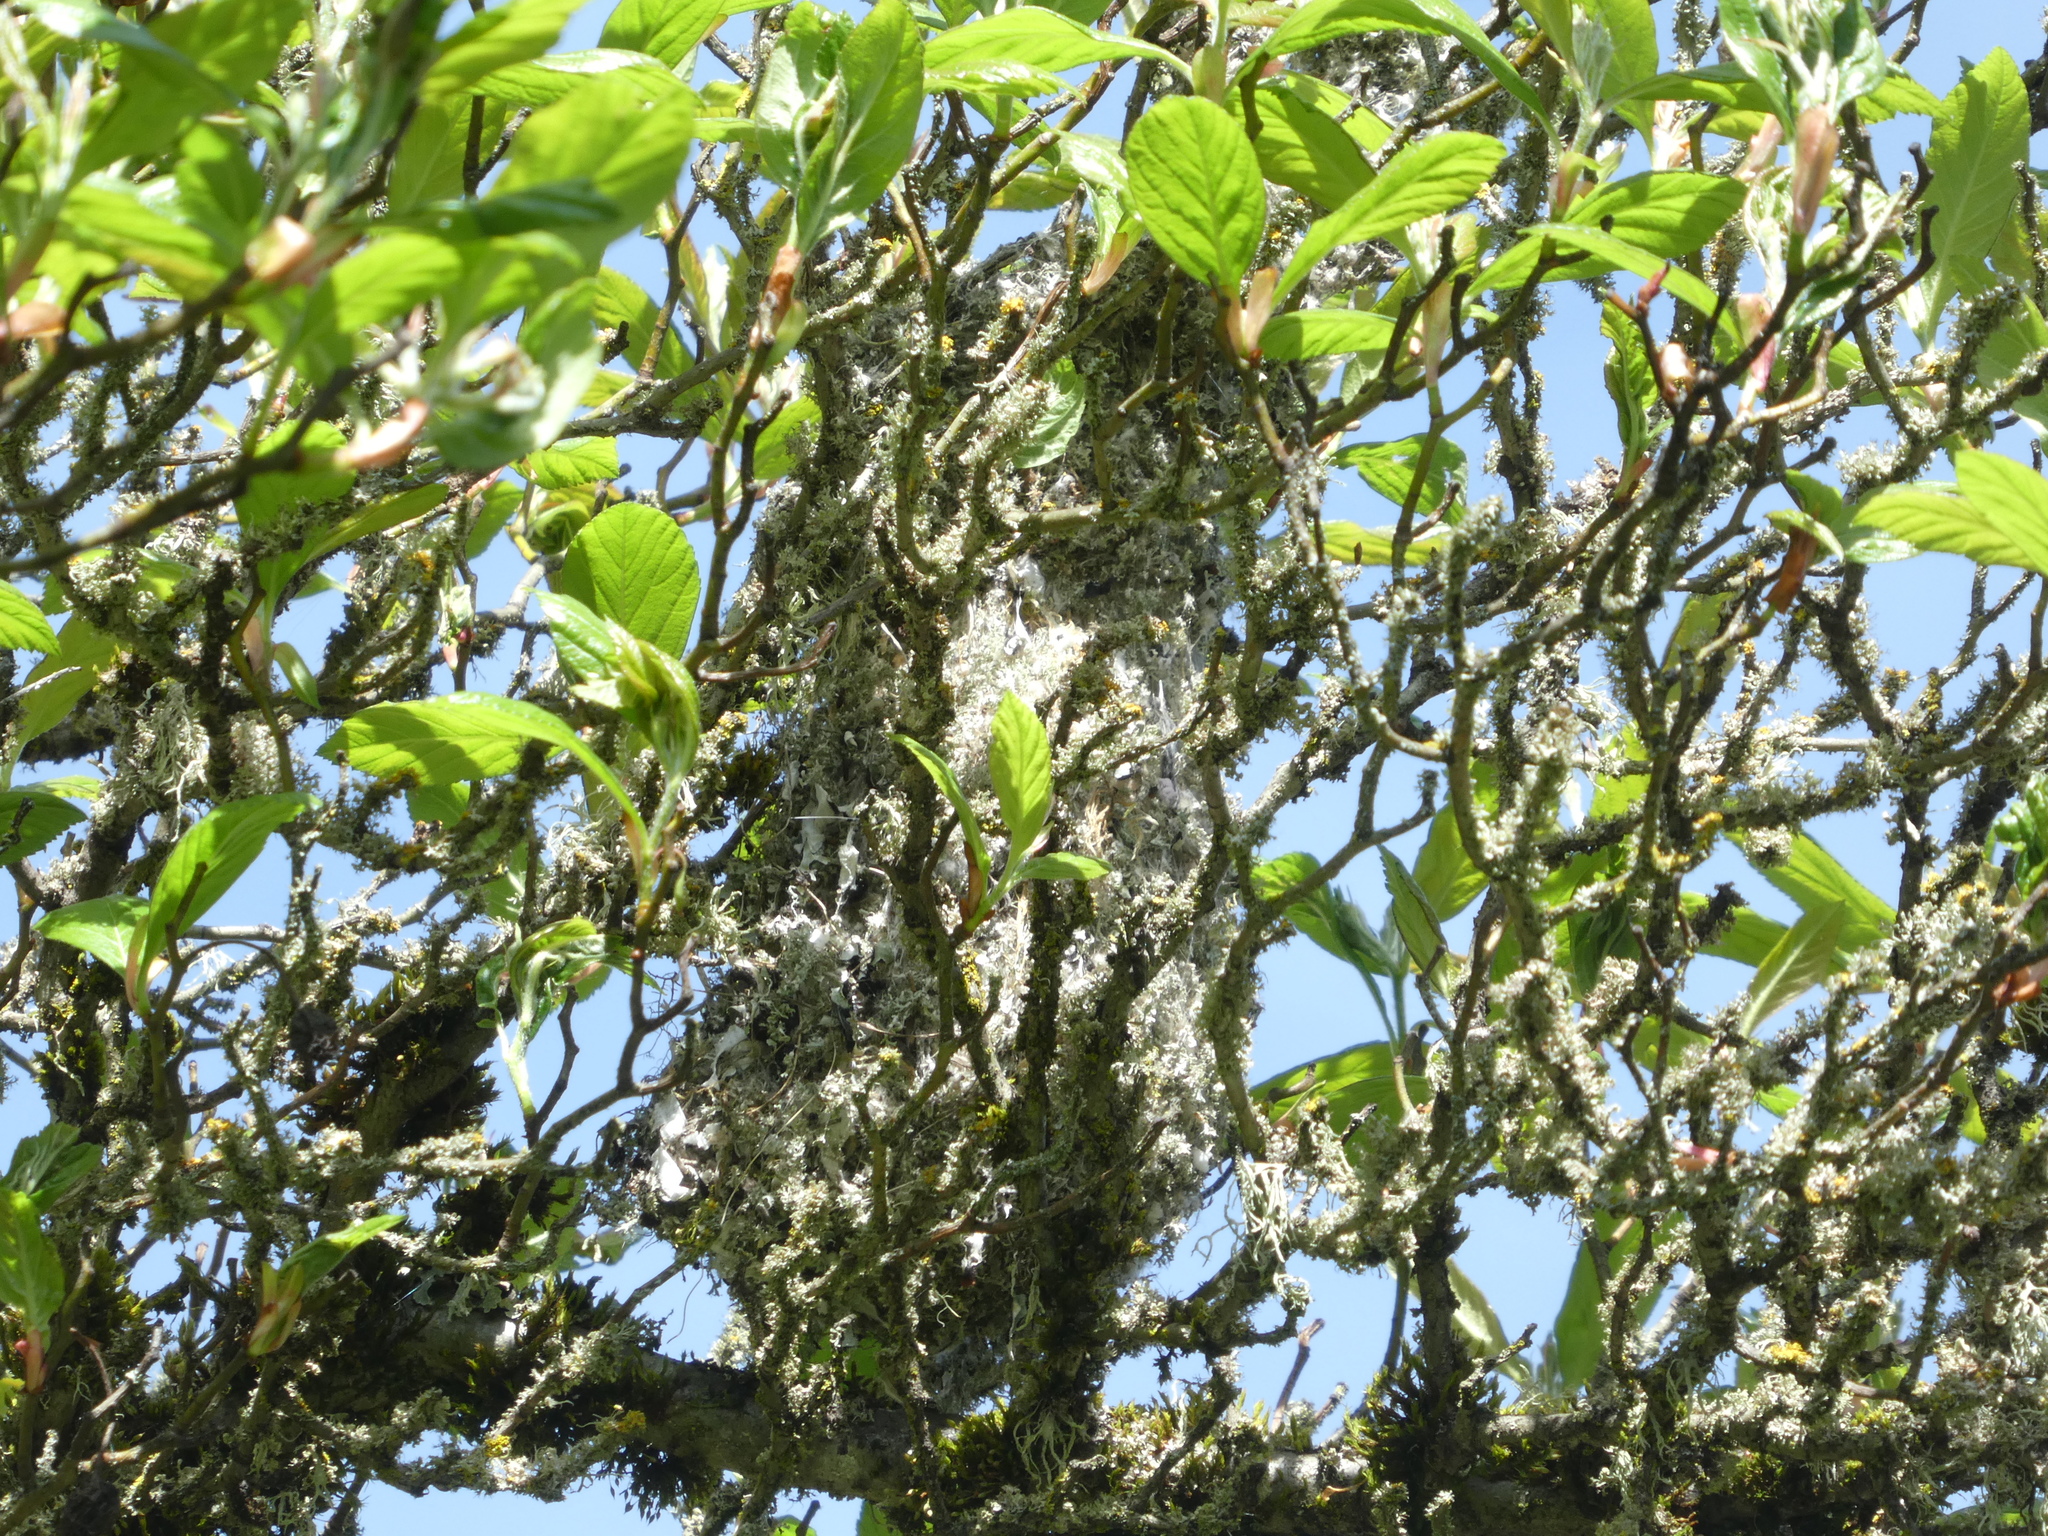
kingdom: Animalia
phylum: Chordata
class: Aves
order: Passeriformes
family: Aegithalidae
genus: Psaltriparus
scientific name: Psaltriparus minimus
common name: American bushtit
